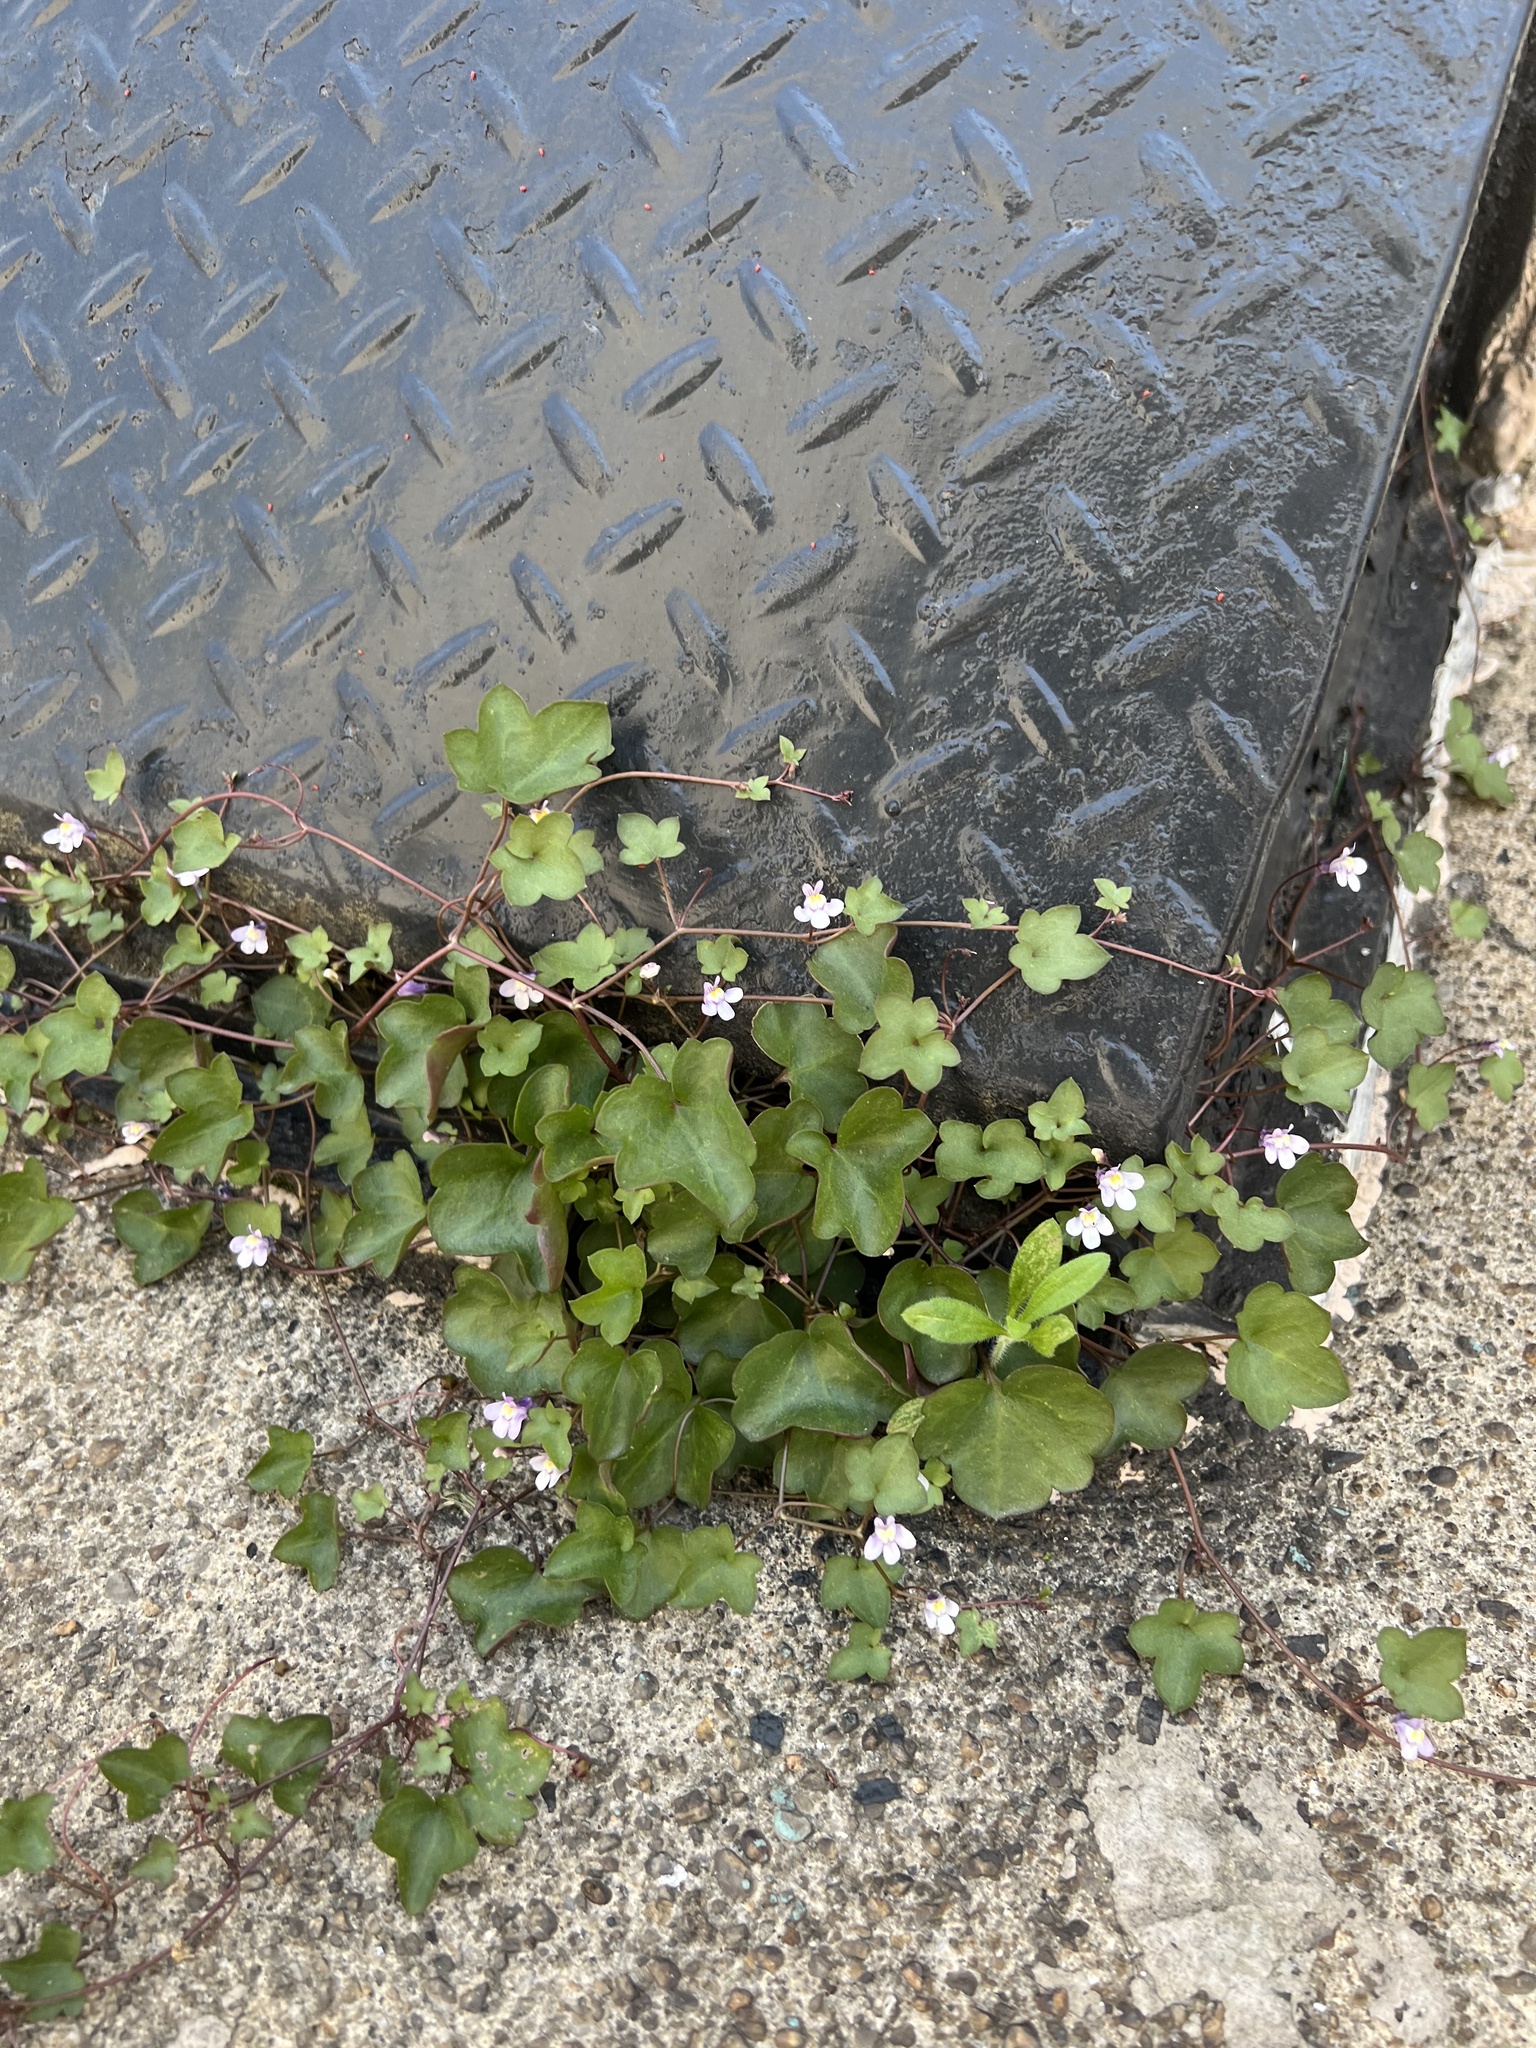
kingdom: Plantae
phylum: Tracheophyta
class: Magnoliopsida
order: Lamiales
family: Plantaginaceae
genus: Cymbalaria
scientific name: Cymbalaria muralis
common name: Ivy-leaved toadflax
